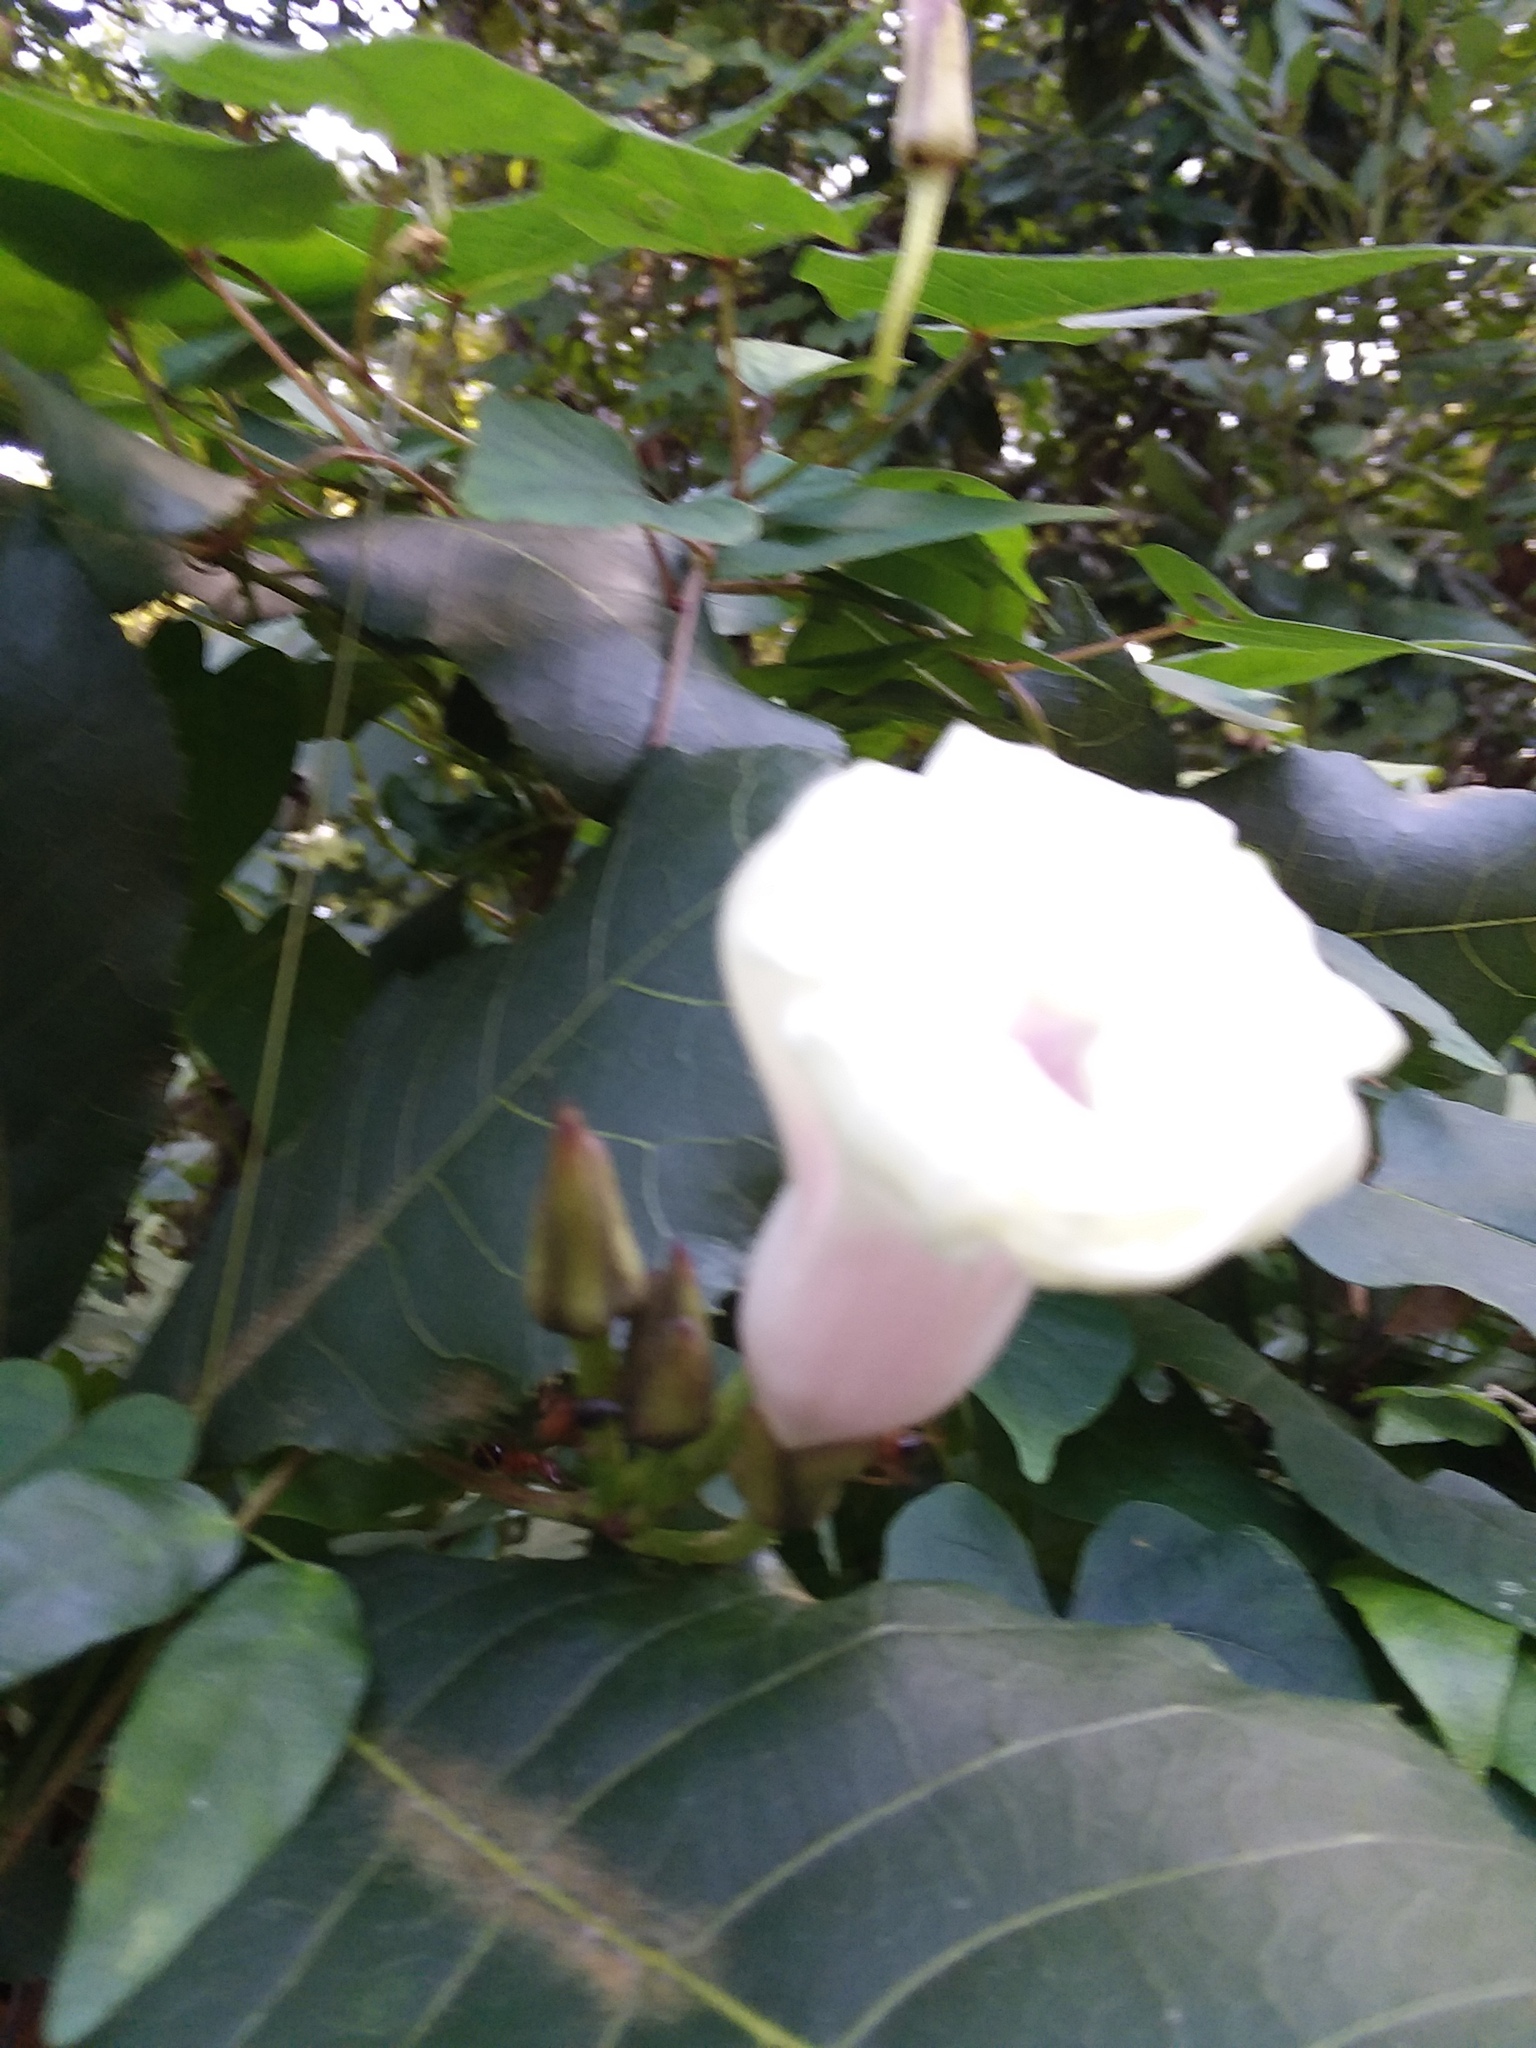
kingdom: Plantae
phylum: Tracheophyta
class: Magnoliopsida
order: Solanales
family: Convolvulaceae
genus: Ipomoea
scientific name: Ipomoea pandurata
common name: Man-of-the-earth
